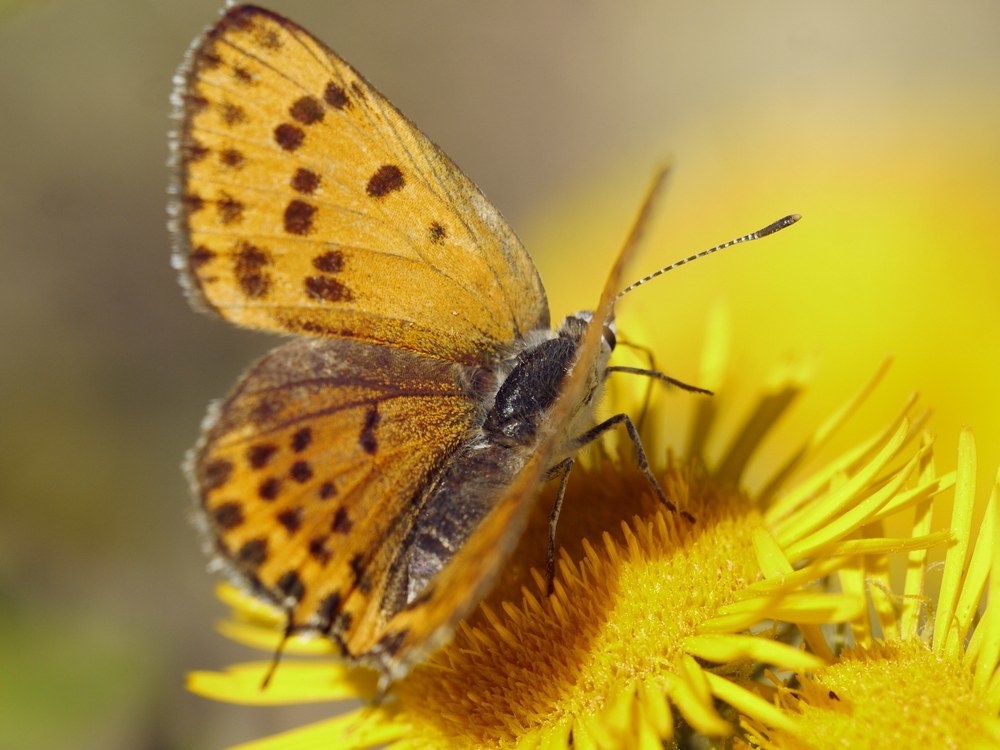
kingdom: Animalia
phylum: Arthropoda
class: Insecta
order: Lepidoptera
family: Lycaenidae
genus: Thersamonia
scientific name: Thersamonia thersamon
